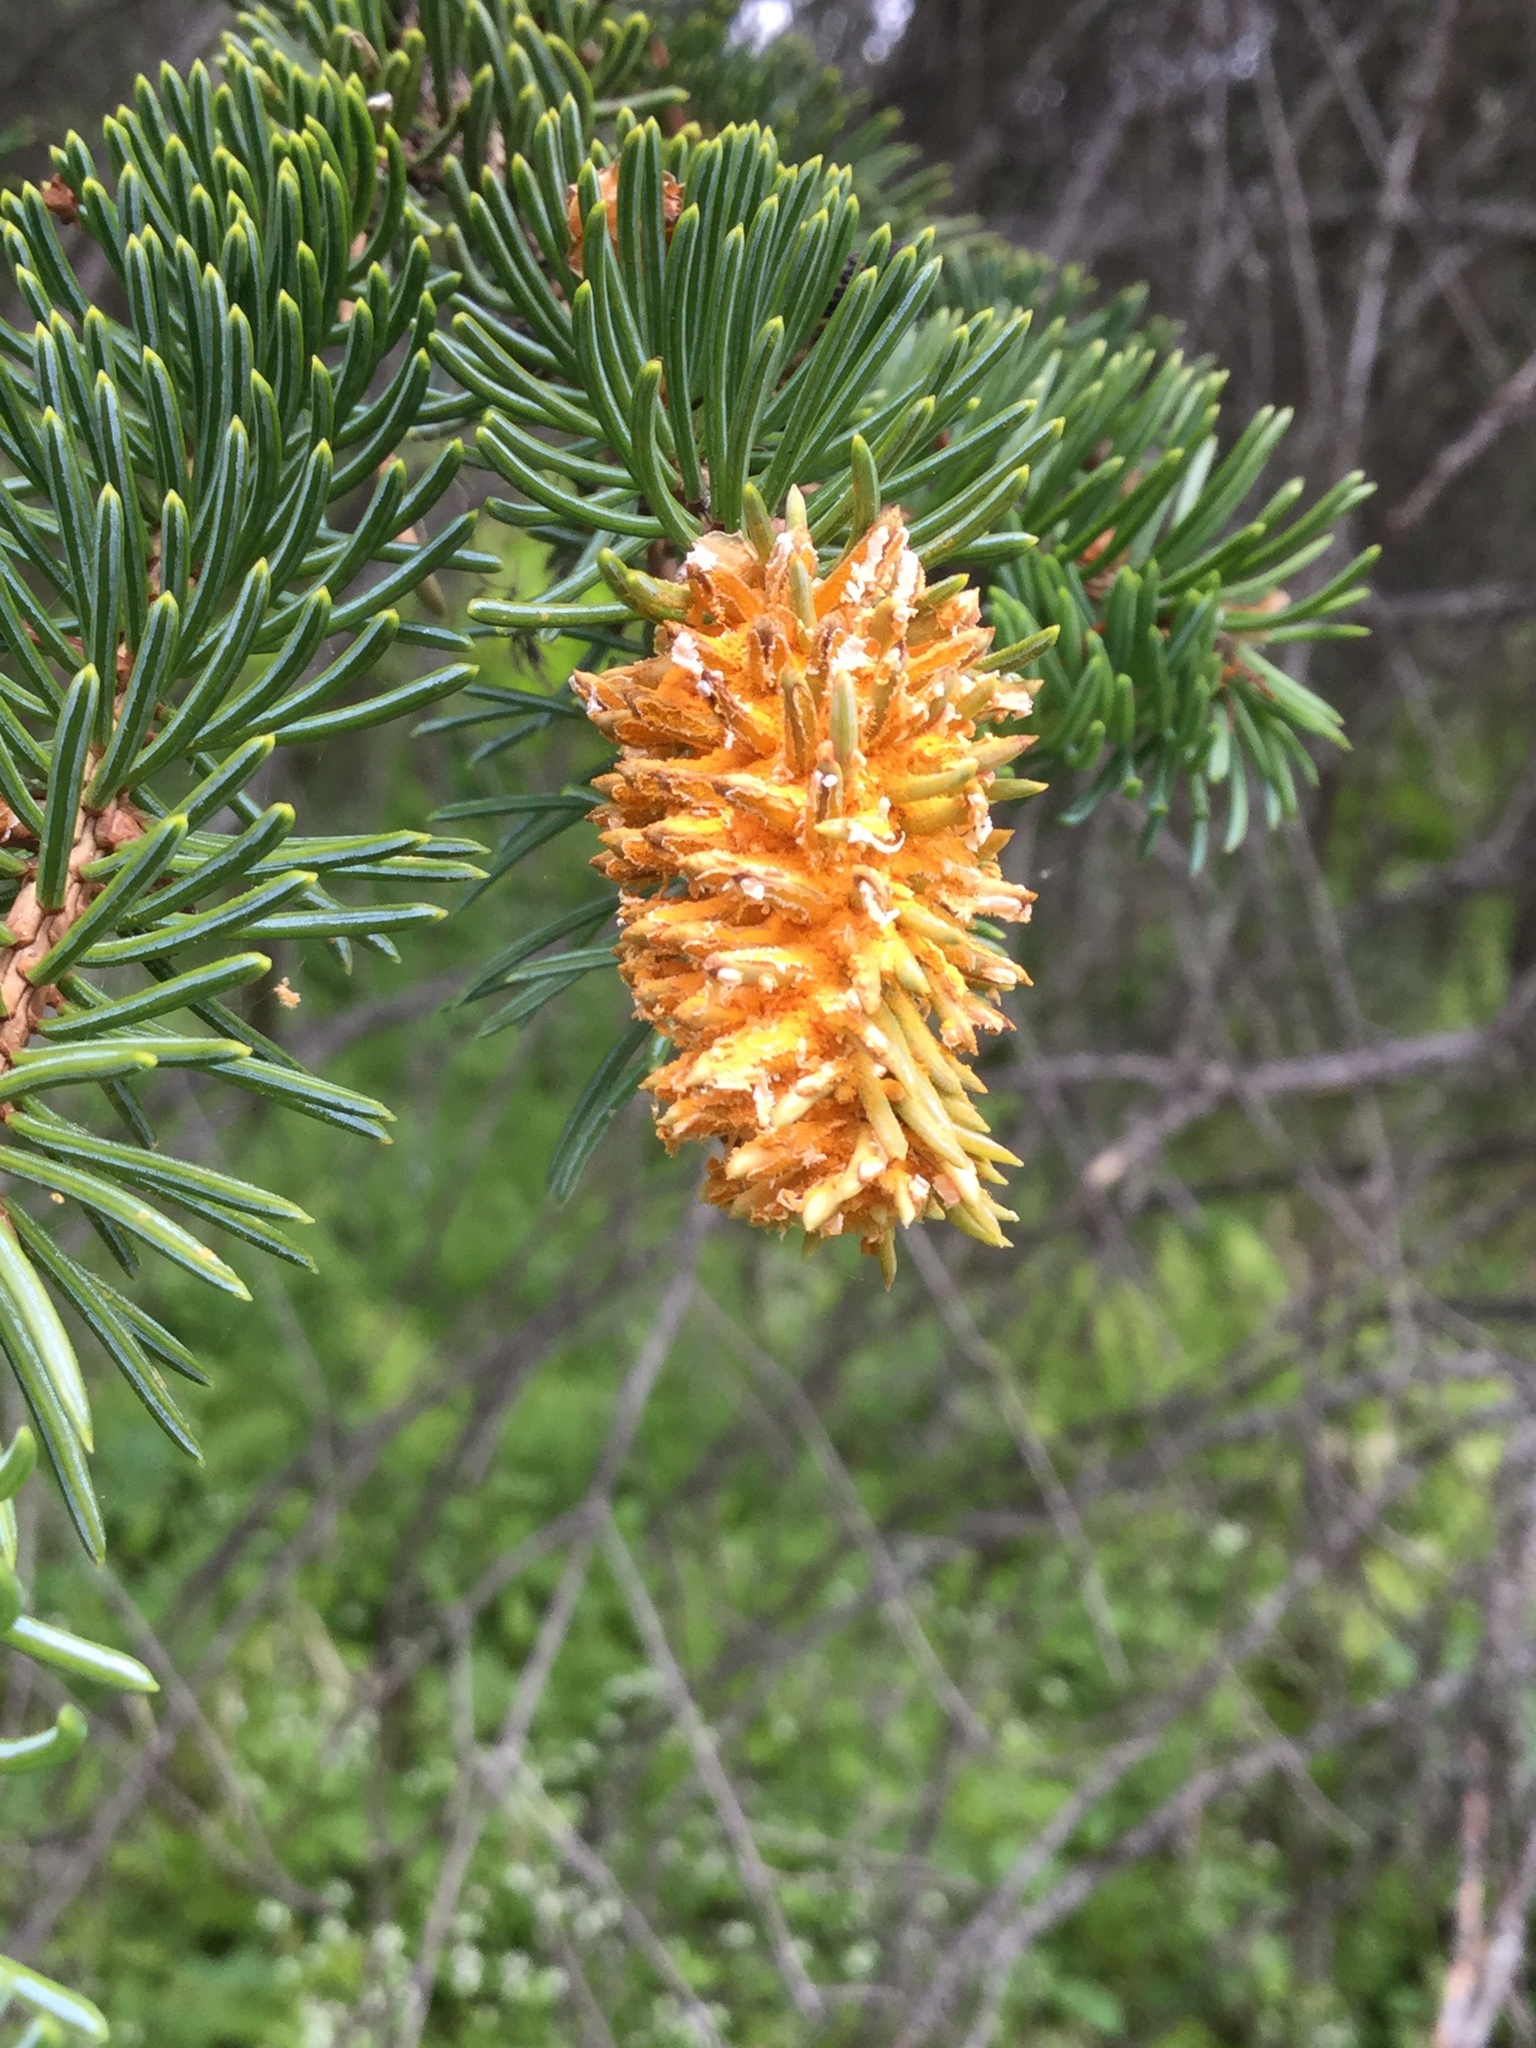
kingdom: Fungi
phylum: Basidiomycota
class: Pucciniomycetes
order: Pucciniales
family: Coleosporiaceae
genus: Chrysomyxa
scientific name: Chrysomyxa woroninii
